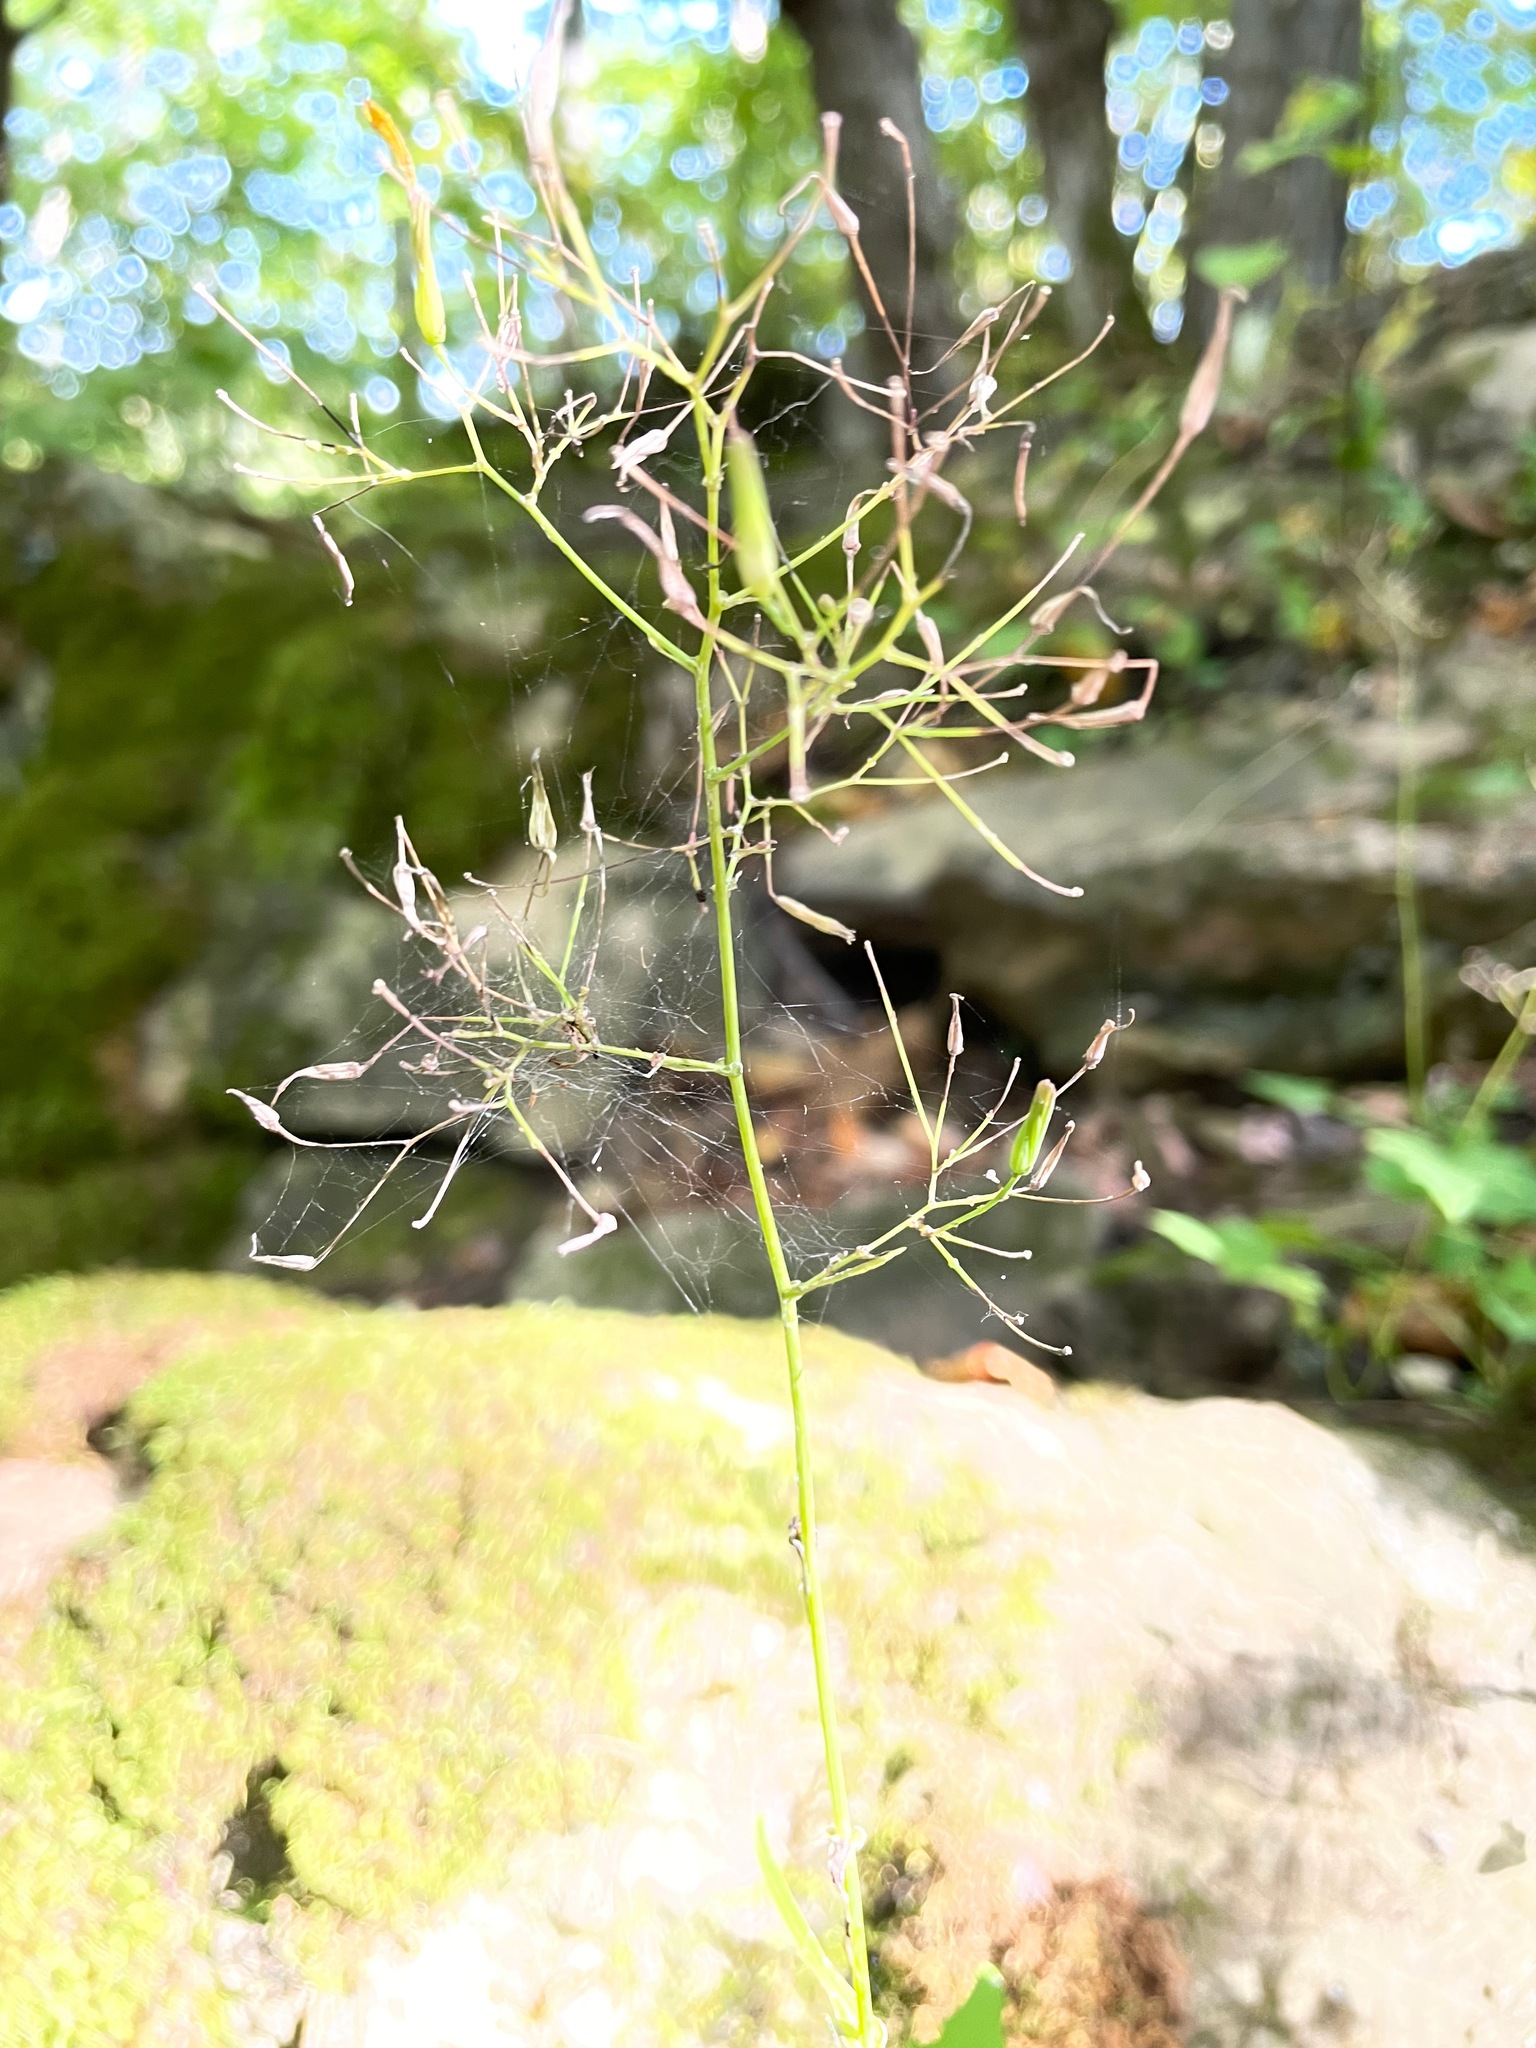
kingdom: Plantae
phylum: Tracheophyta
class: Magnoliopsida
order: Asterales
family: Asteraceae
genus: Mycelis
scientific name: Mycelis muralis
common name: Wall lettuce
